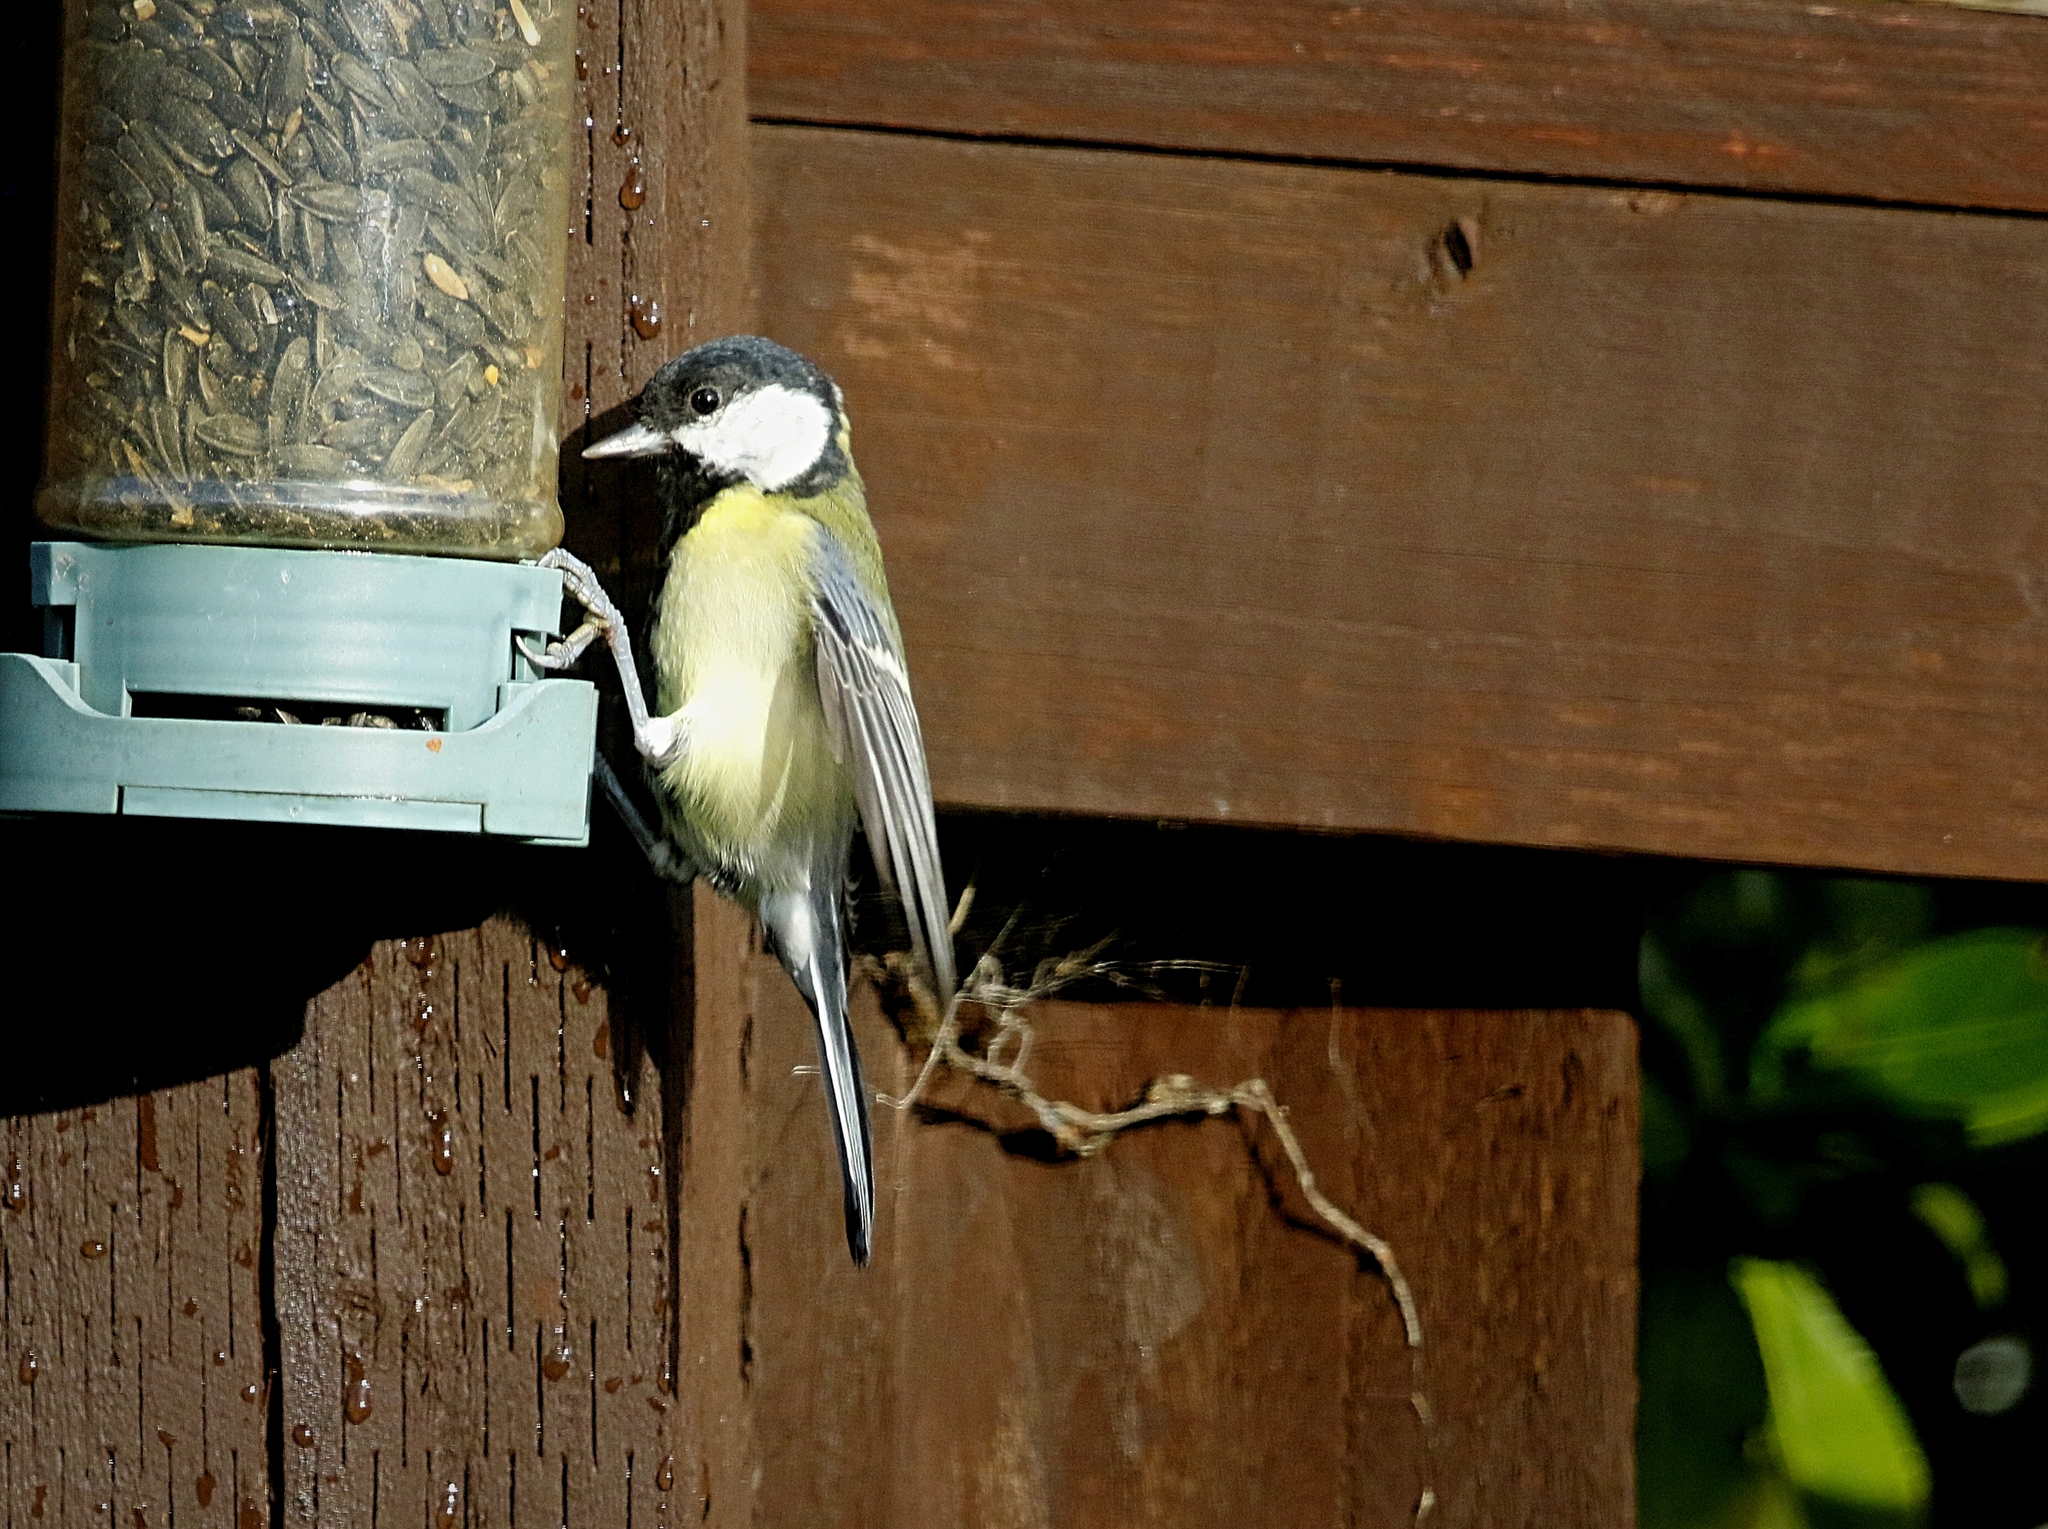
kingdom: Animalia
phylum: Chordata
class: Aves
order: Passeriformes
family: Paridae
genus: Parus
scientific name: Parus major
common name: Great tit
